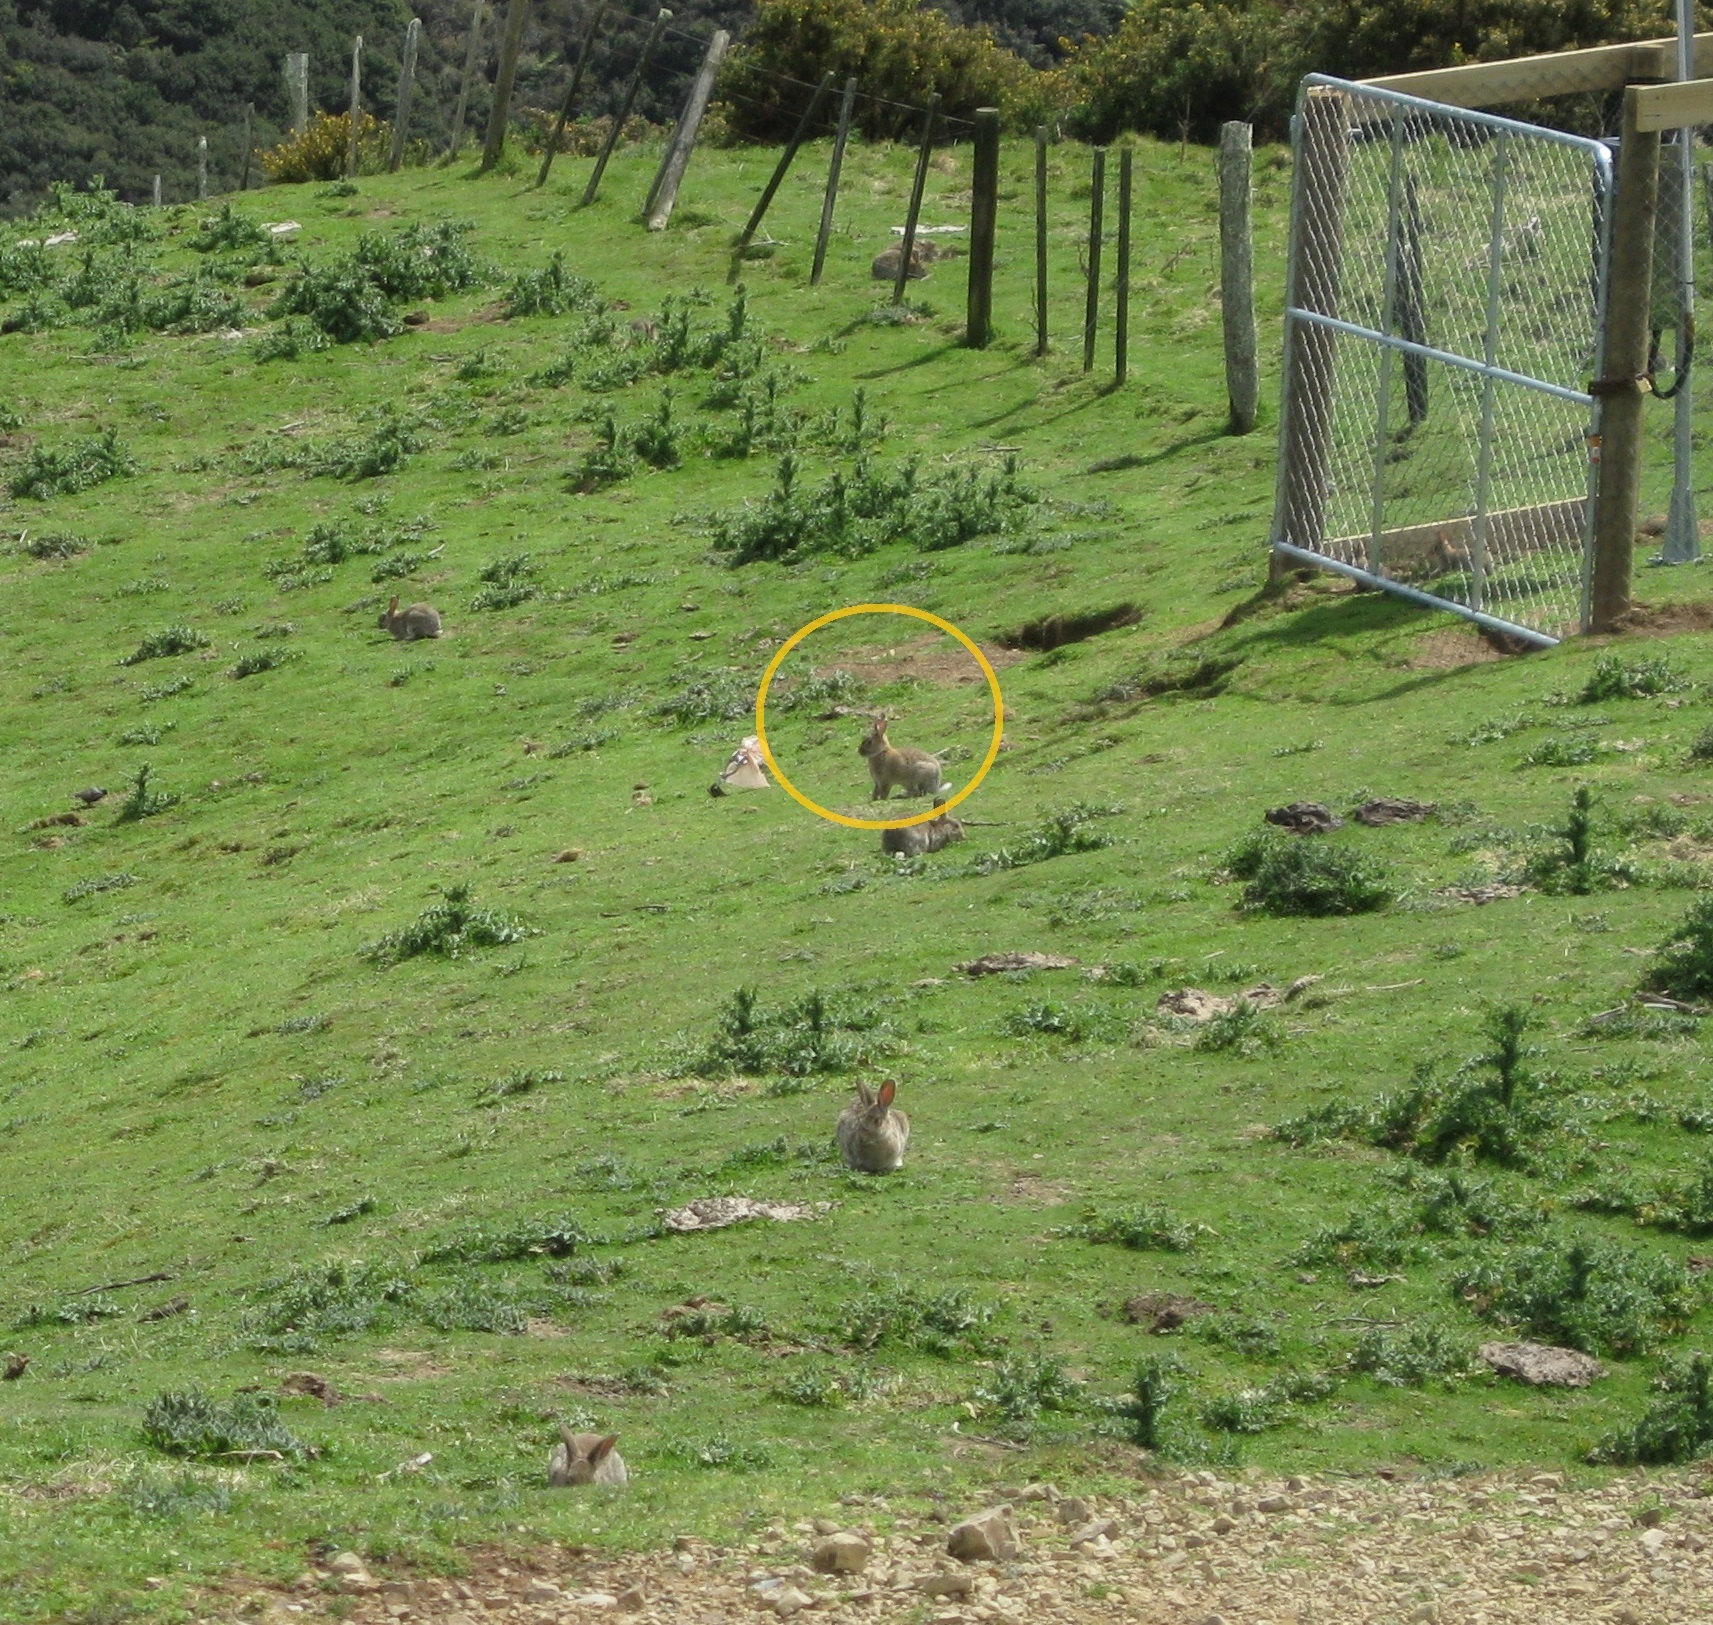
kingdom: Animalia
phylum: Chordata
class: Mammalia
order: Lagomorpha
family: Leporidae
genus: Oryctolagus
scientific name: Oryctolagus cuniculus
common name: European rabbit
